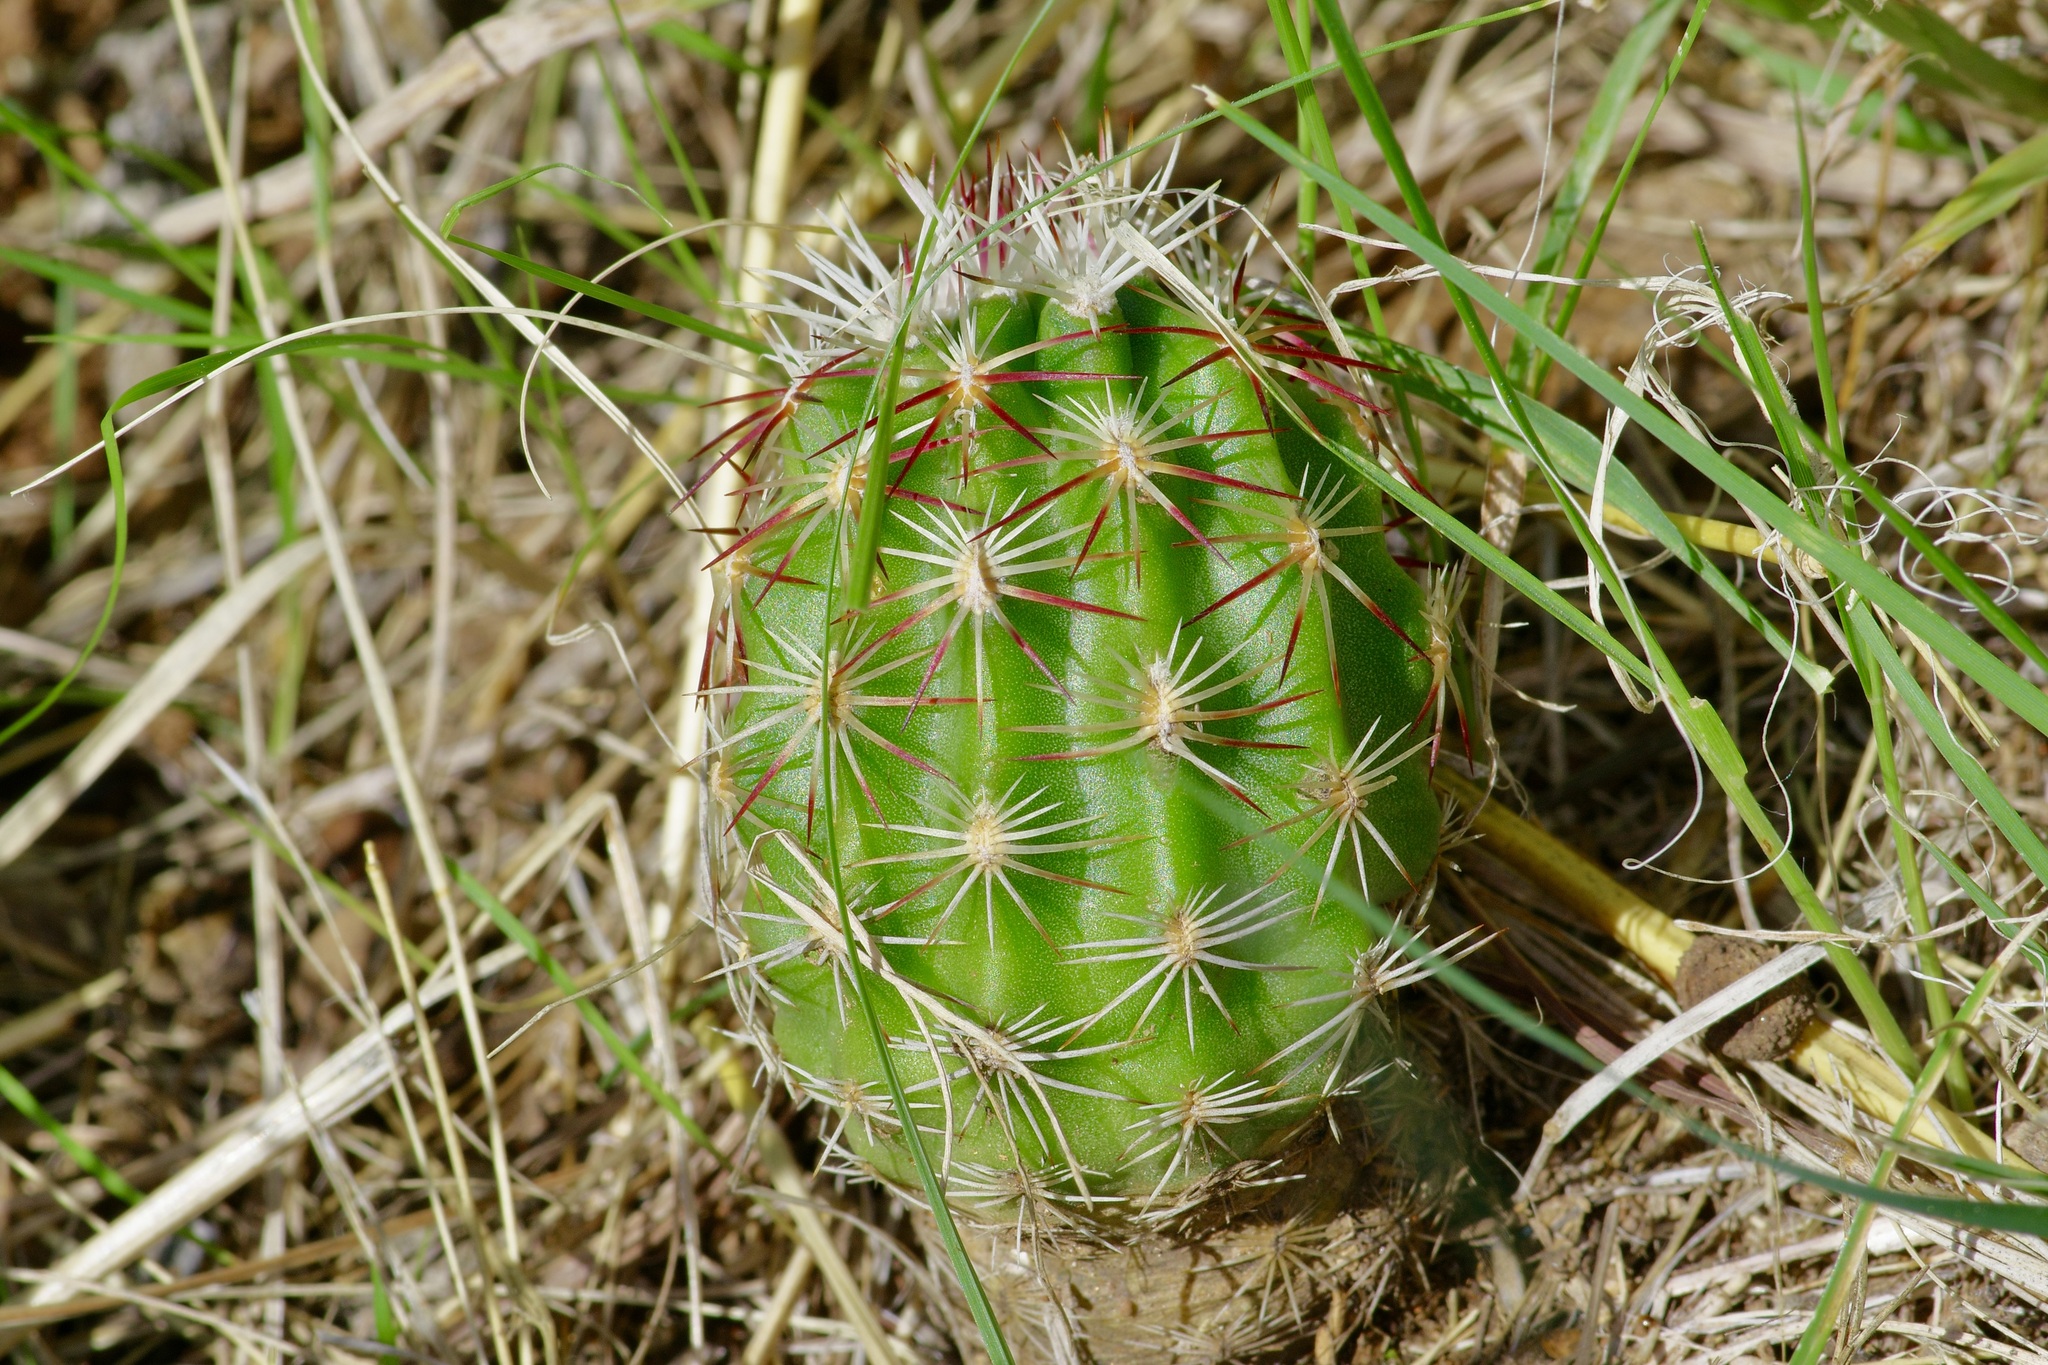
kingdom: Plantae
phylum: Tracheophyta
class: Magnoliopsida
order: Caryophyllales
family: Cactaceae
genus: Echinocereus
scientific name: Echinocereus viridiflorus
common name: Nylon hedgehog cactus
